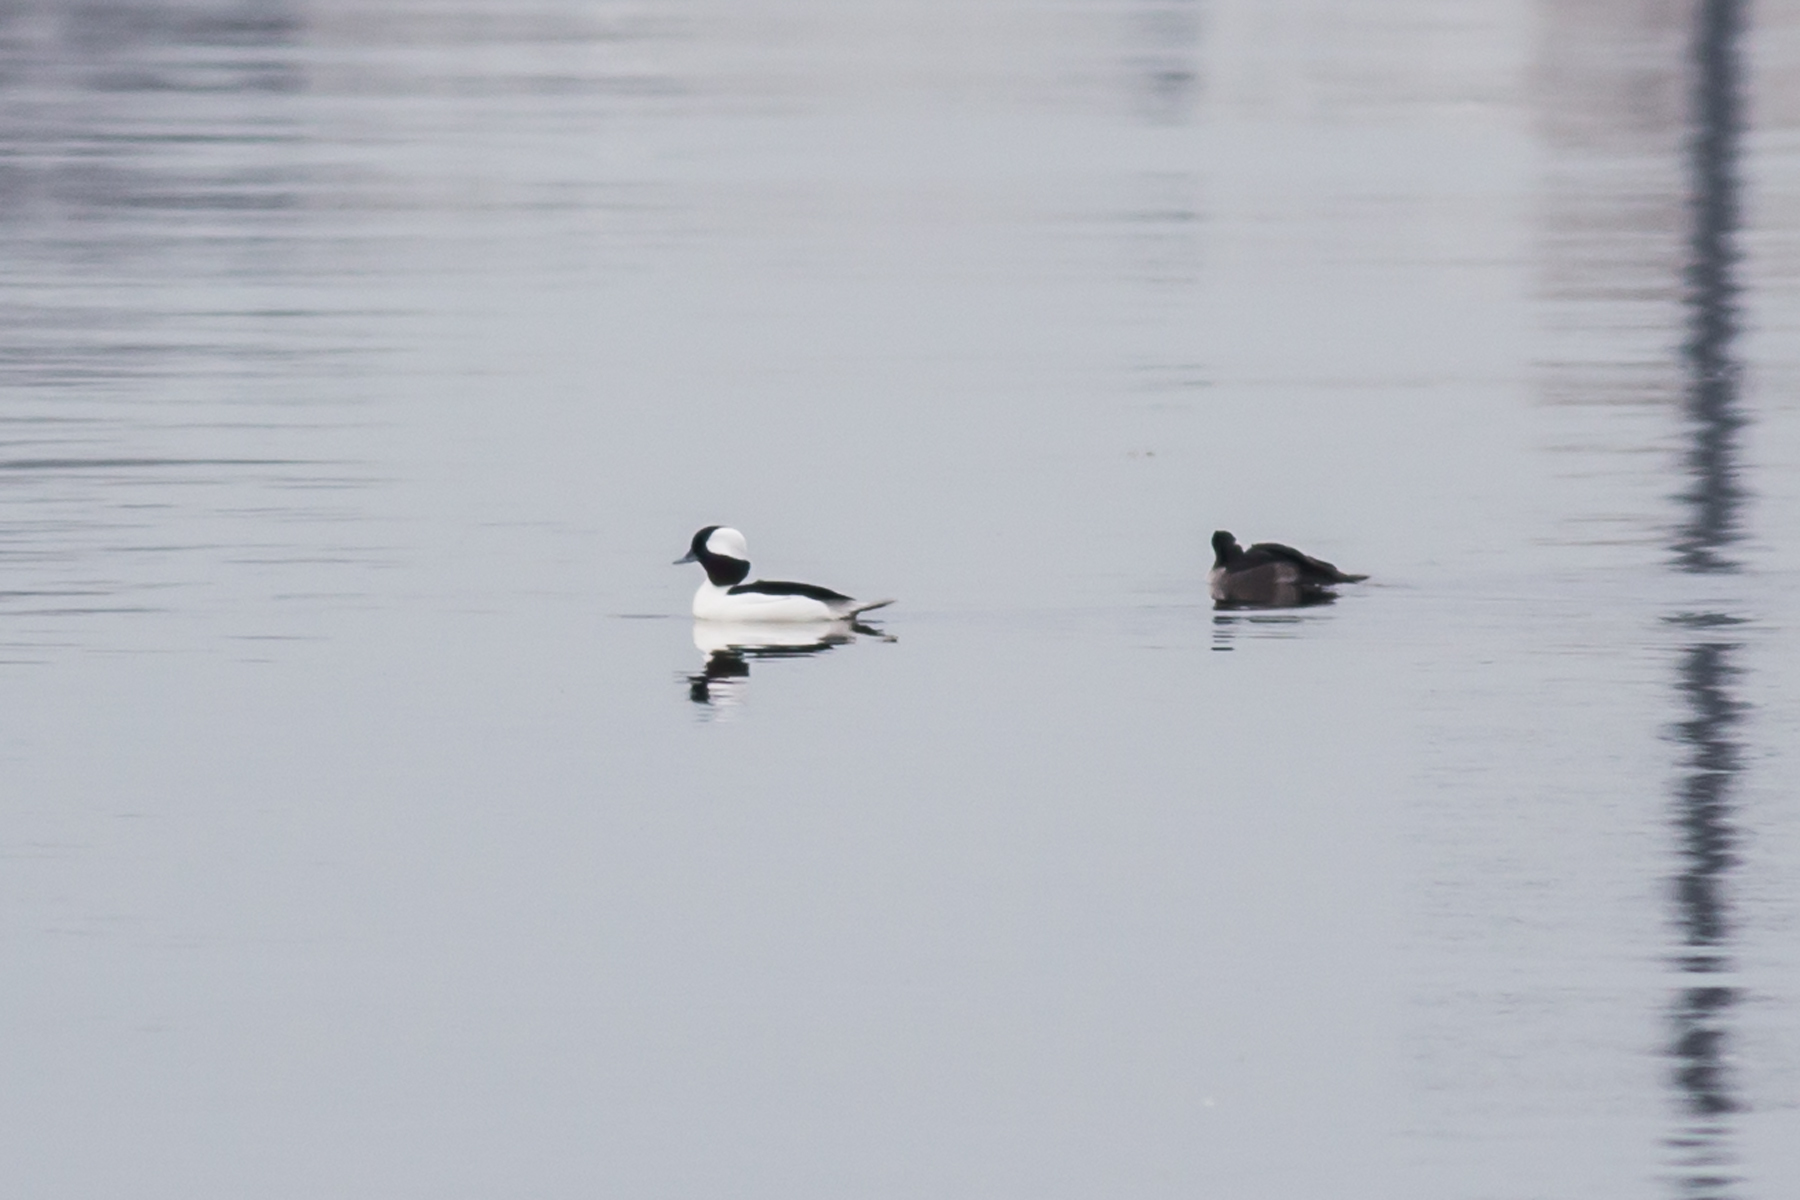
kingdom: Animalia
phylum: Chordata
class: Aves
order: Anseriformes
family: Anatidae
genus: Bucephala
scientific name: Bucephala albeola
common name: Bufflehead
